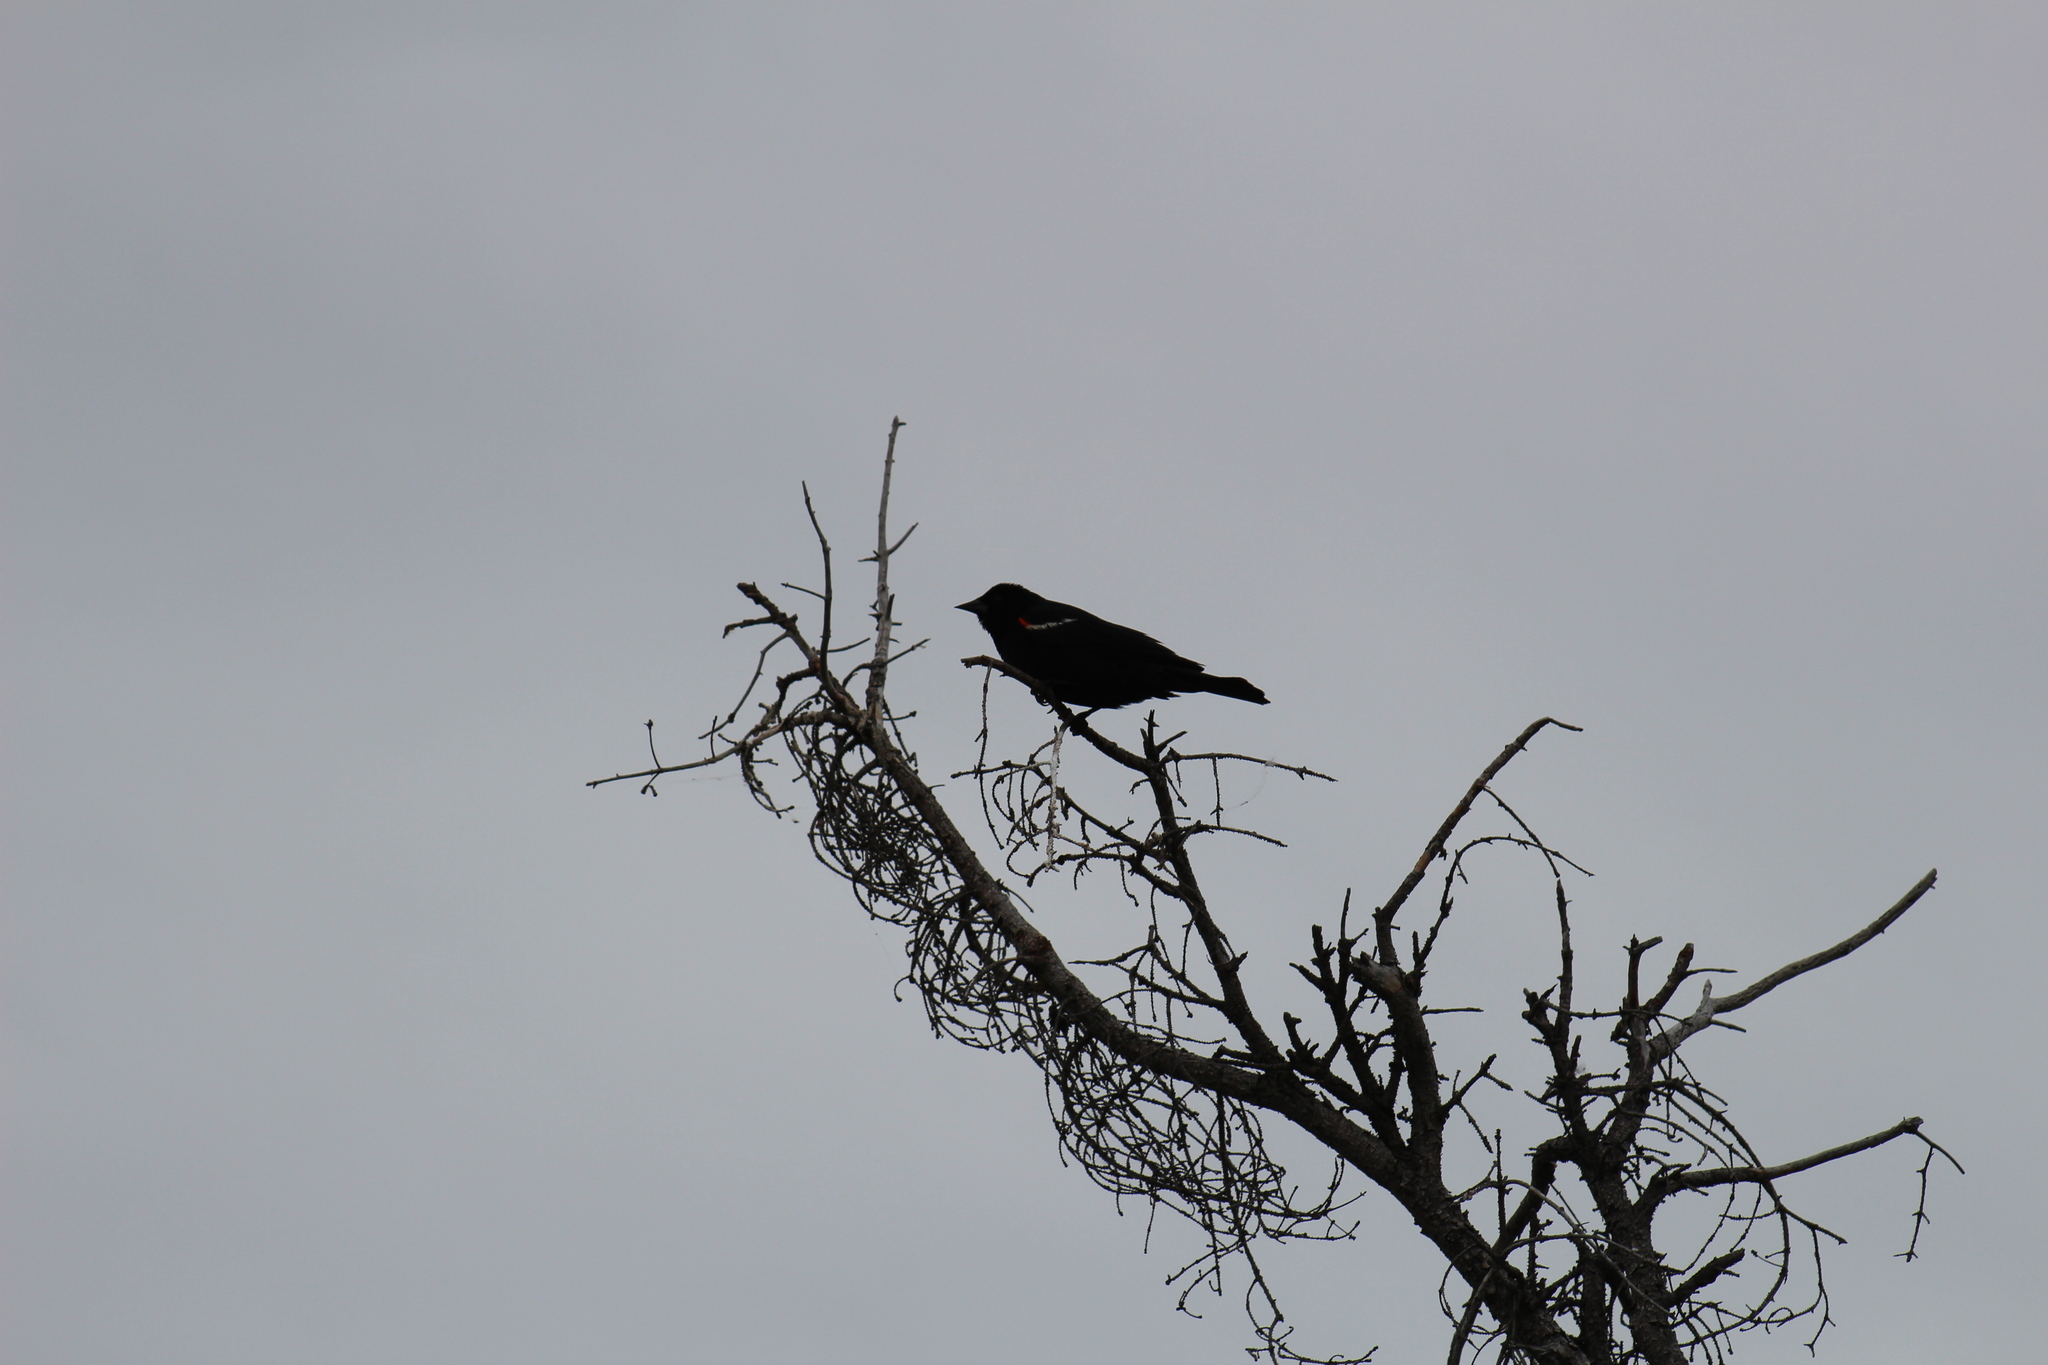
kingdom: Animalia
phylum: Chordata
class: Aves
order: Passeriformes
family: Icteridae
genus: Agelaius
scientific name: Agelaius phoeniceus
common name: Red-winged blackbird
